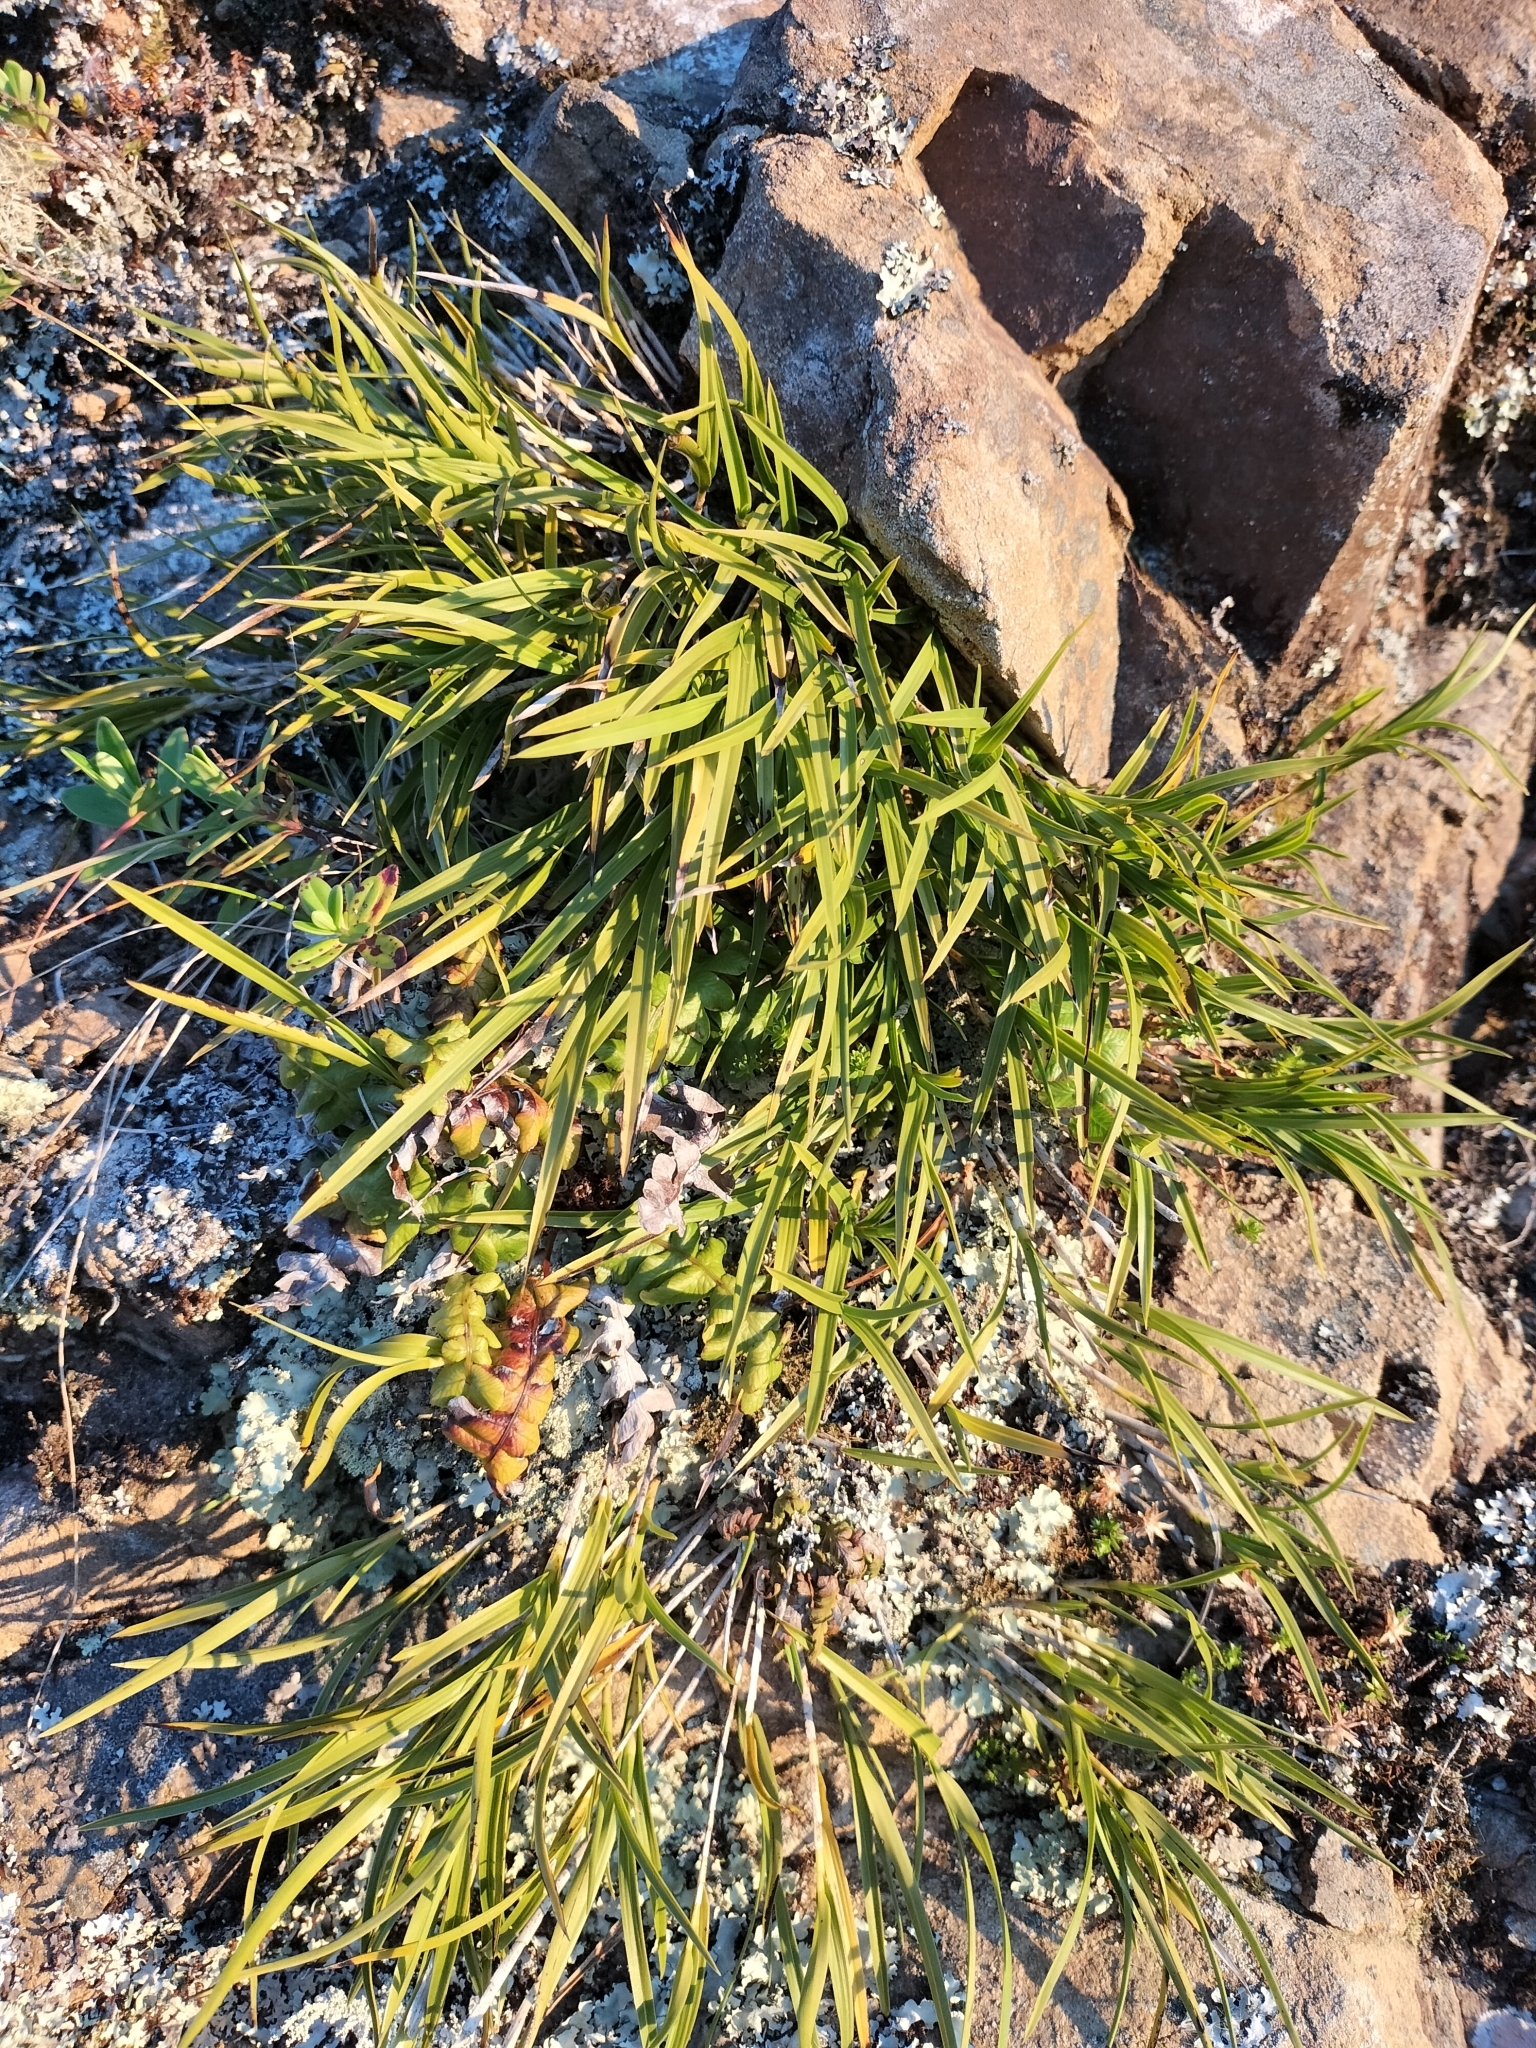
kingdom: Plantae
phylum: Tracheophyta
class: Liliopsida
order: Asparagales
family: Orchidaceae
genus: Earina
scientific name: Earina mucronata
